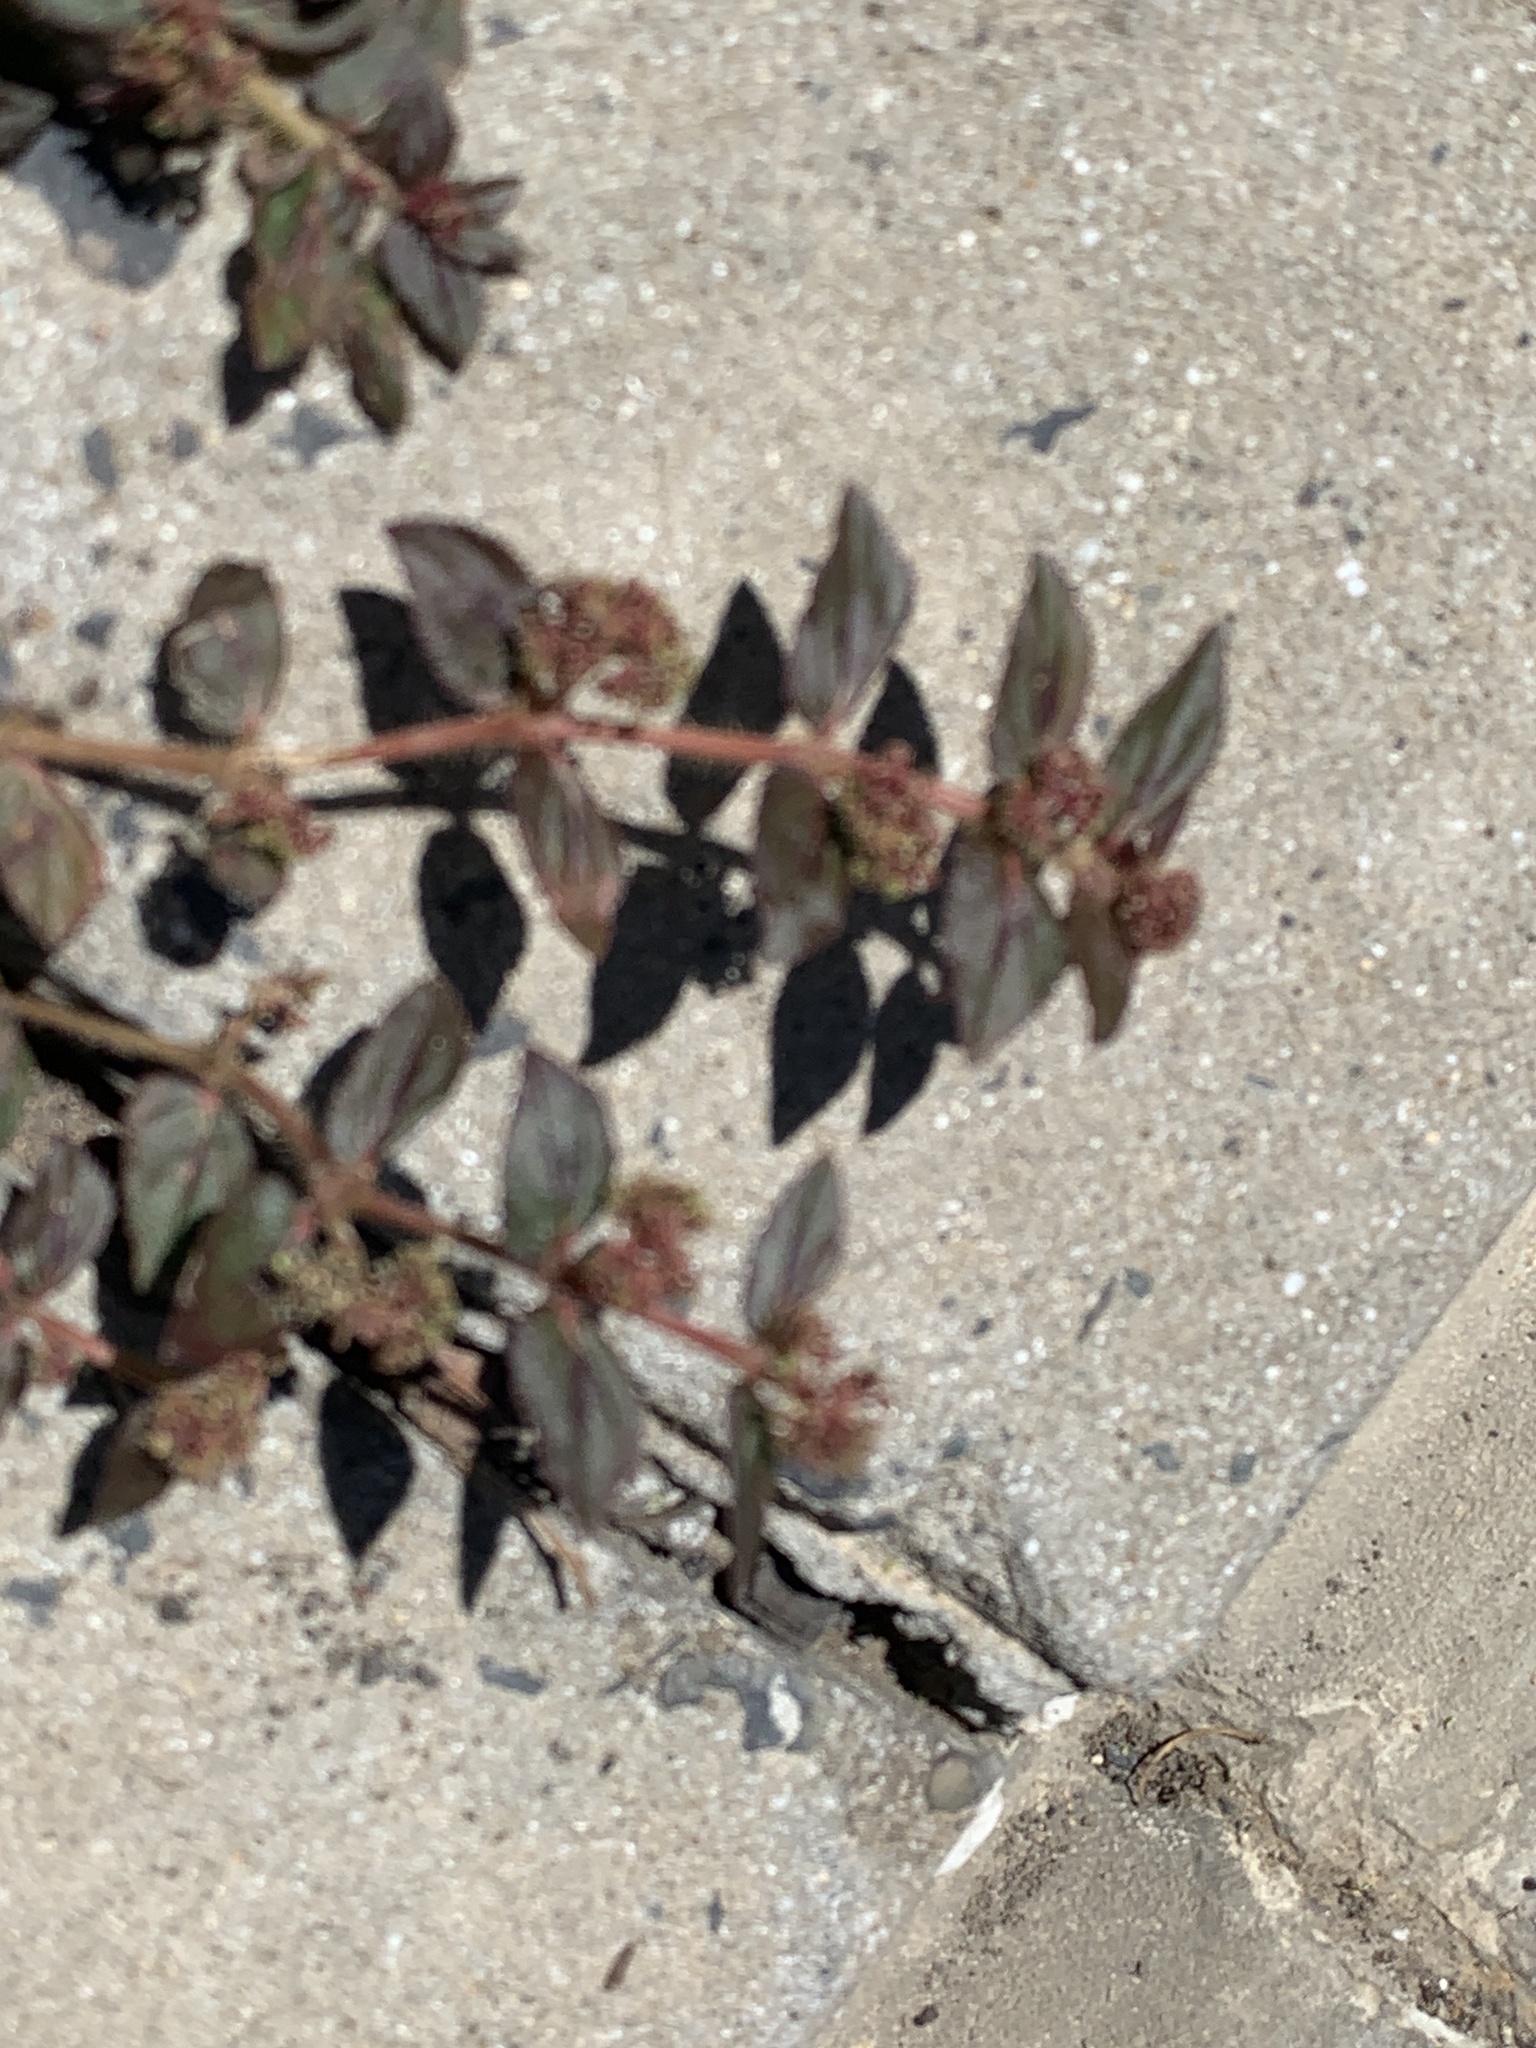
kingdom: Plantae
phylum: Tracheophyta
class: Magnoliopsida
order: Malpighiales
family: Euphorbiaceae
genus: Euphorbia
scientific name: Euphorbia hirta
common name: Pillpod sandmat
